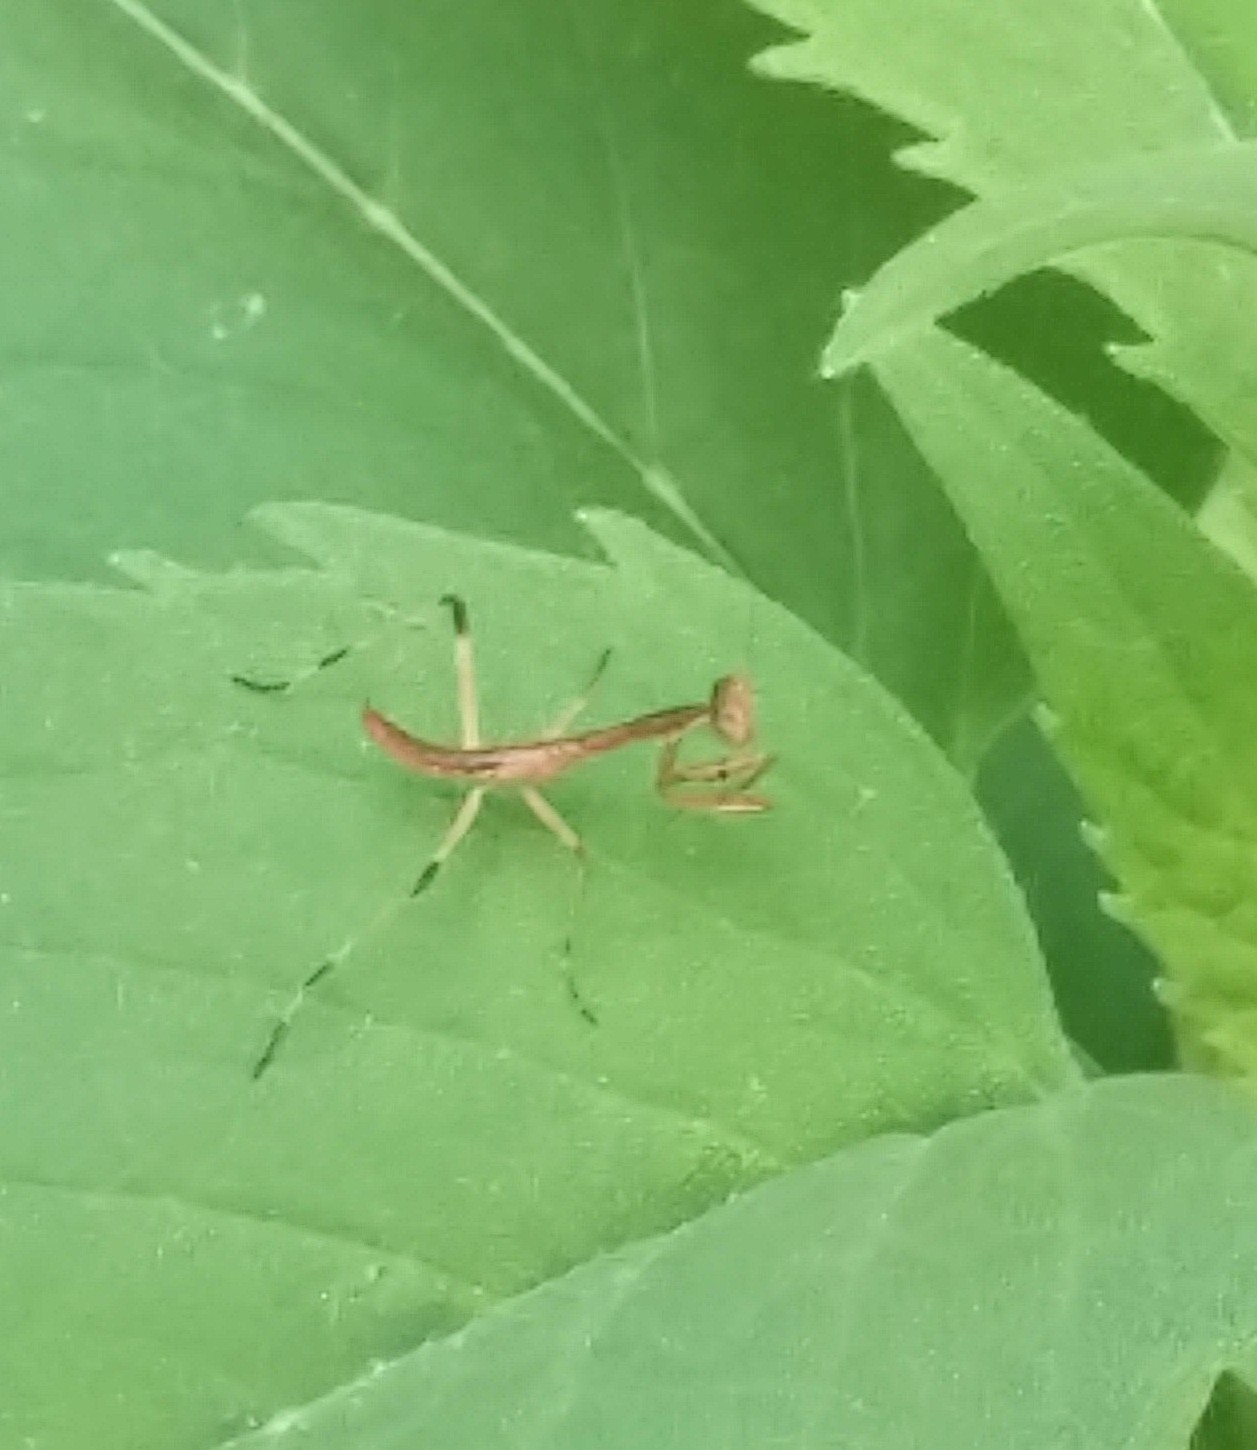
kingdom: Animalia
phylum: Arthropoda
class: Insecta
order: Mantodea
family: Mantidae
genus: Stagmomantis
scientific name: Stagmomantis carolina
